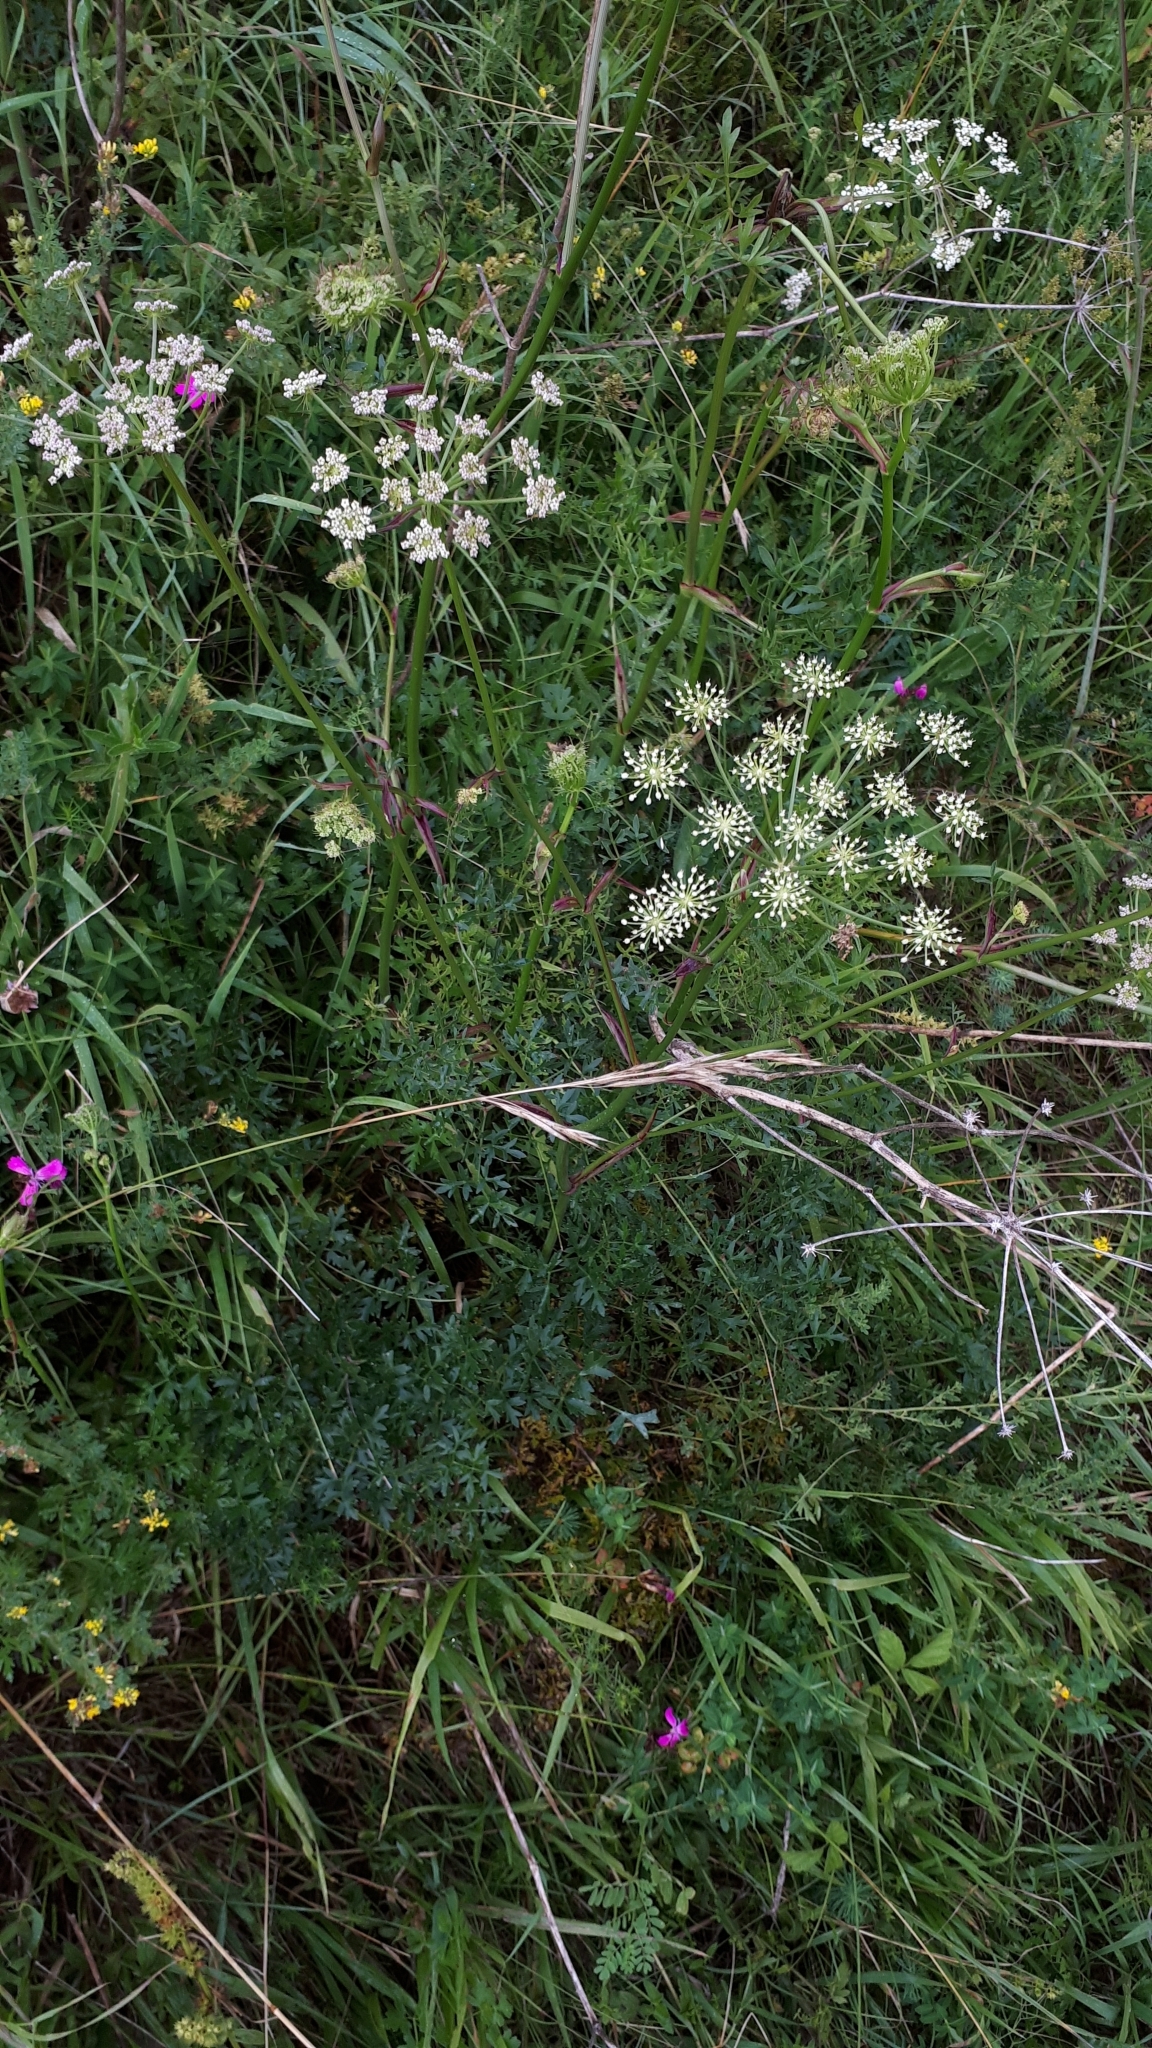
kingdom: Plantae
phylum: Tracheophyta
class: Magnoliopsida
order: Apiales
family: Apiaceae
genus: Oreoselinum
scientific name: Oreoselinum nigrum
